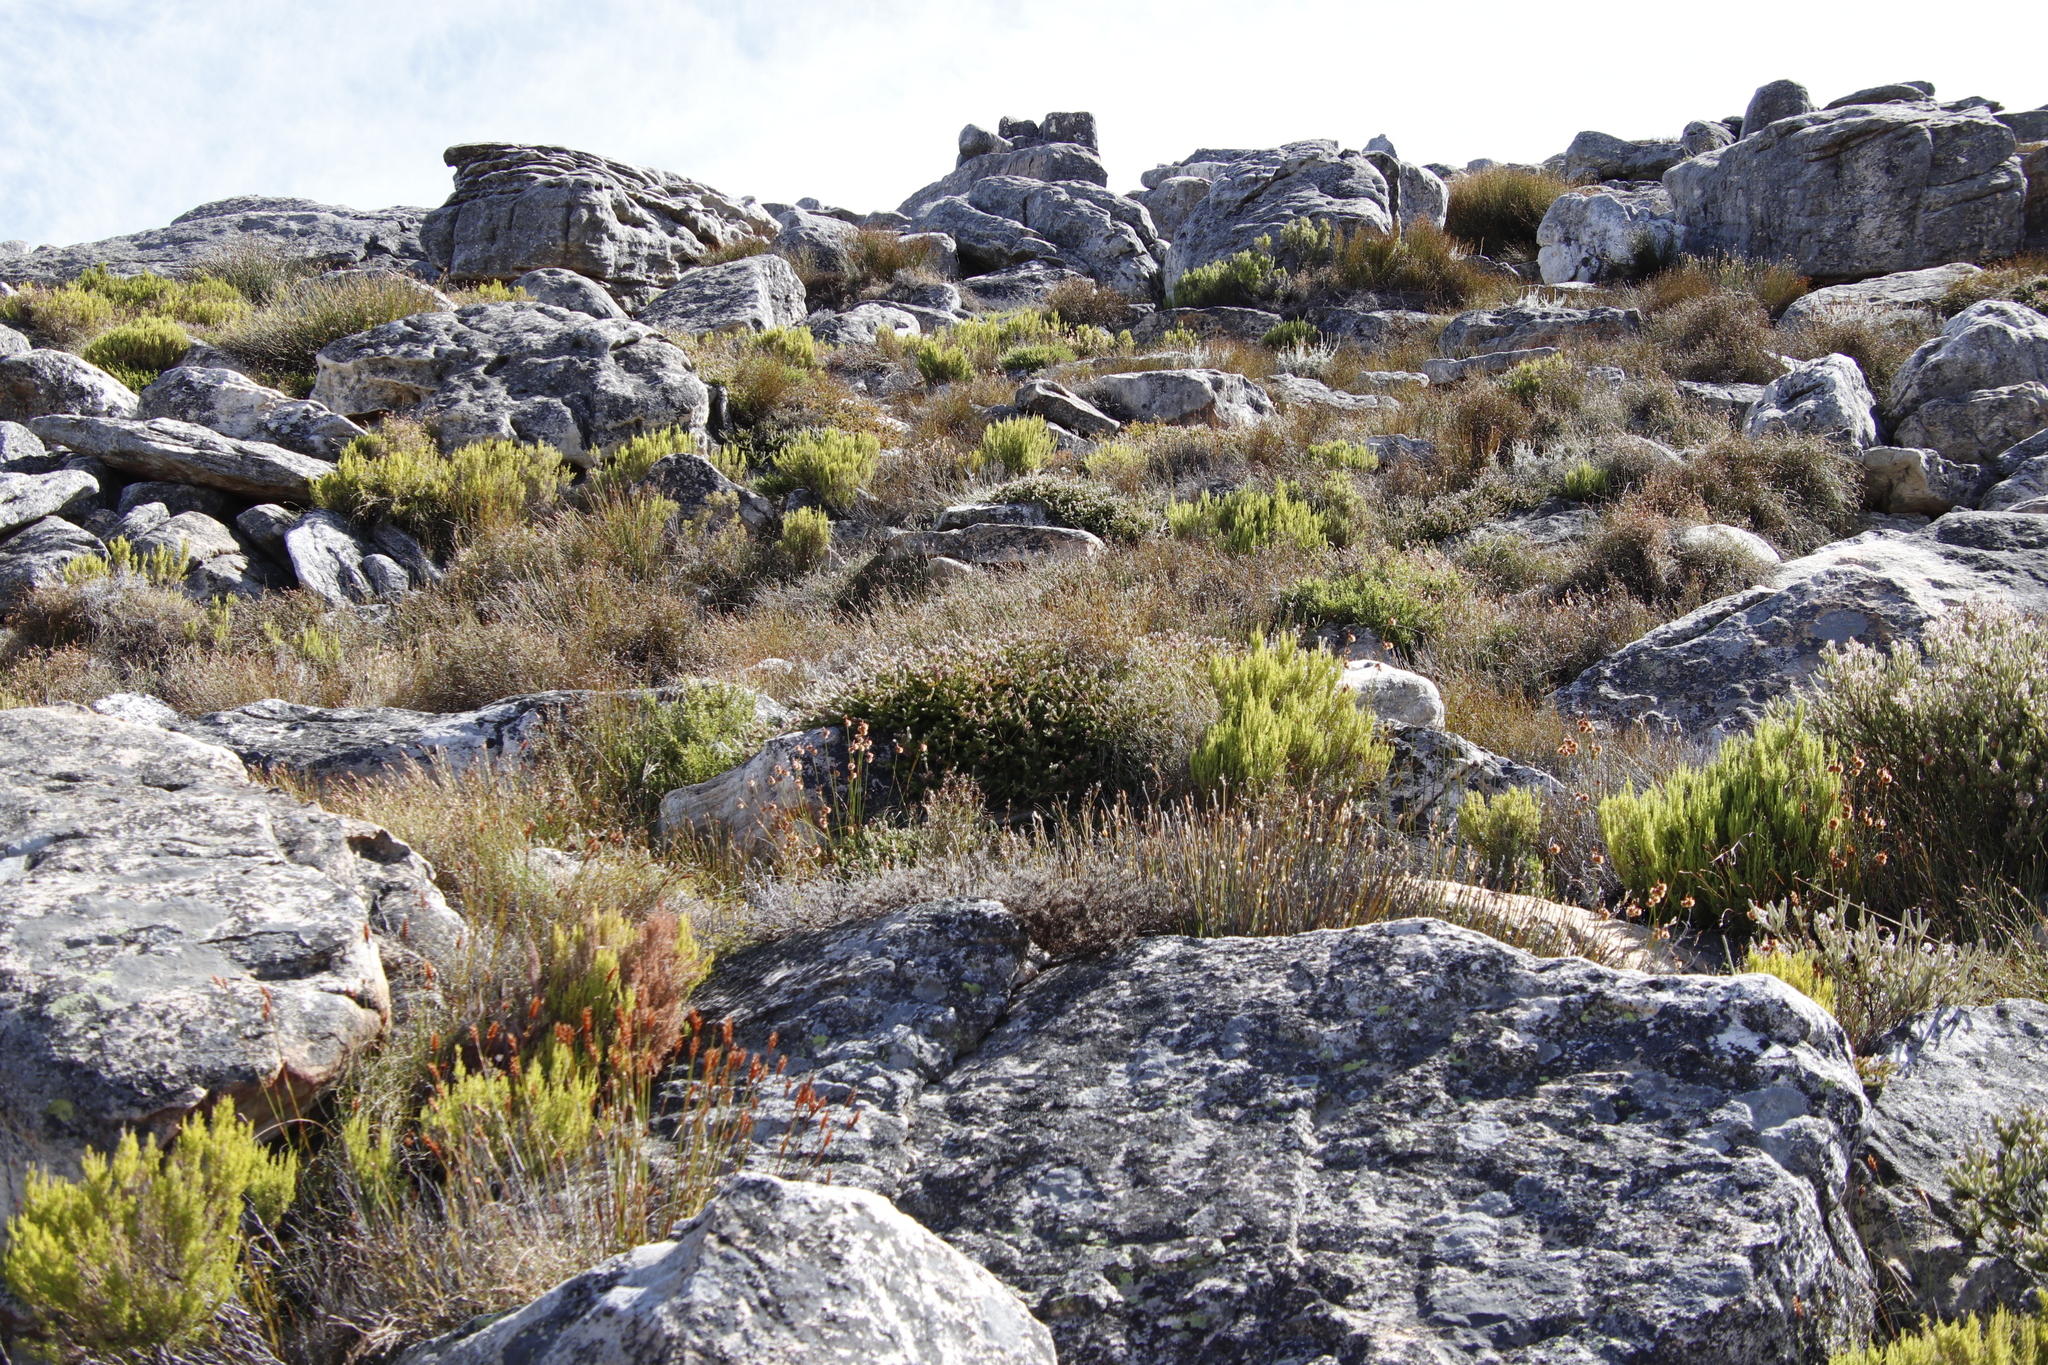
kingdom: Plantae
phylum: Tracheophyta
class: Magnoliopsida
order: Proteales
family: Proteaceae
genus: Spatalla
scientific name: Spatalla incurva
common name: Swan-head spoon
